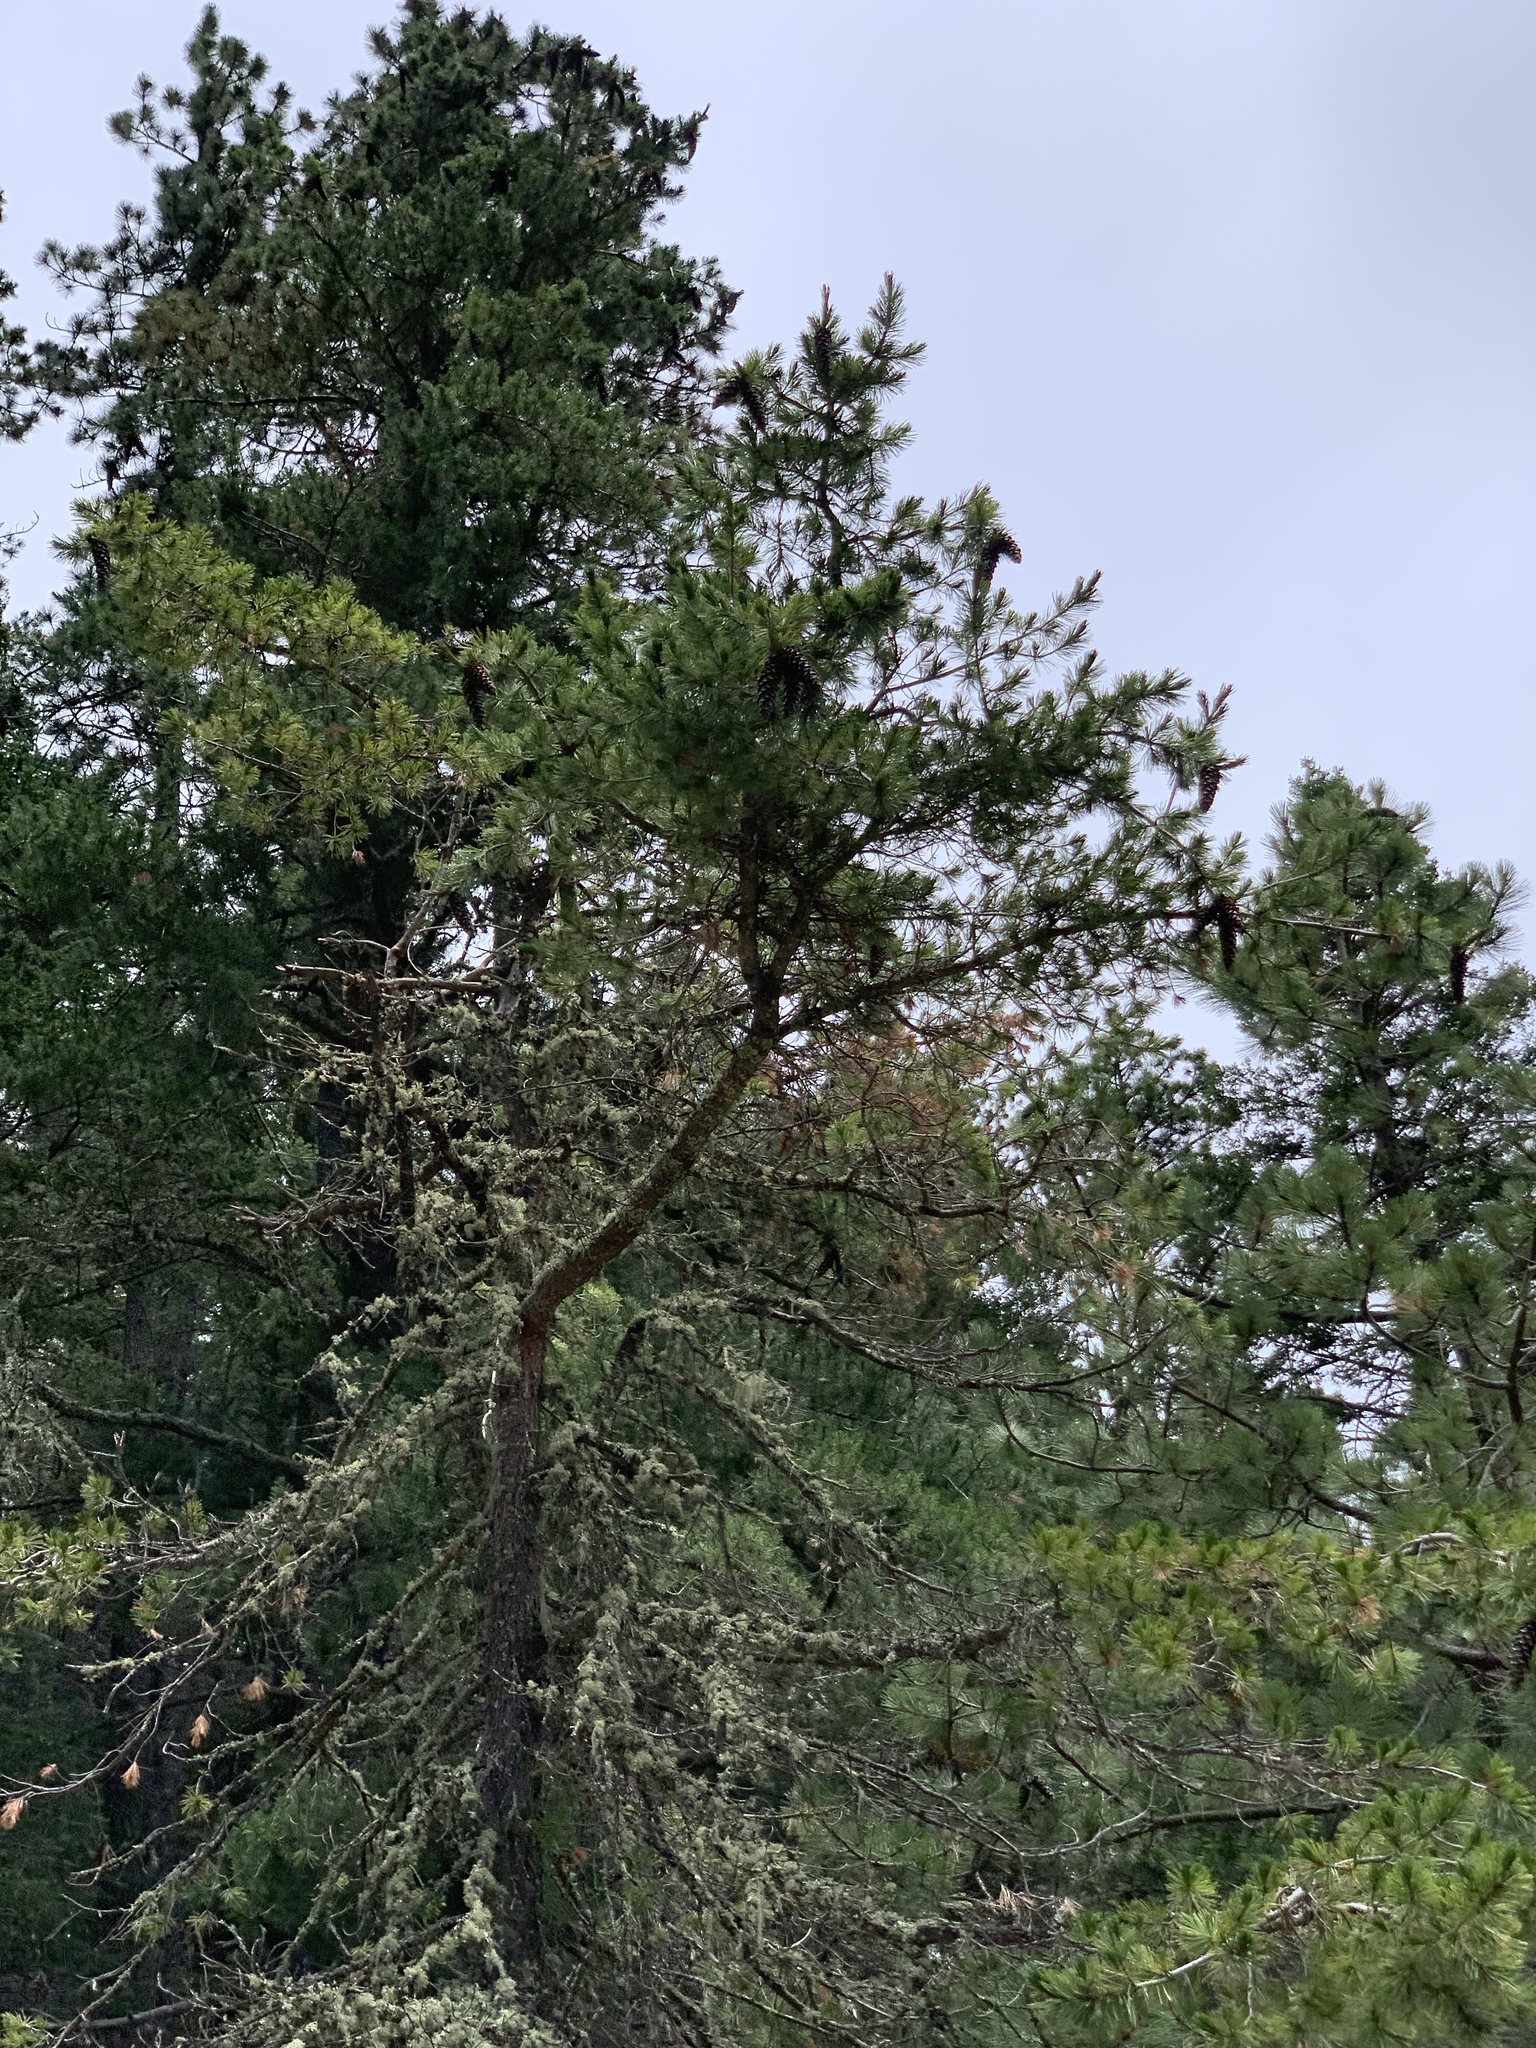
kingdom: Plantae
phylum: Tracheophyta
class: Pinopsida
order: Pinales
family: Pinaceae
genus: Pinus
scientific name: Pinus strobiformis
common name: Southwestern white pine
